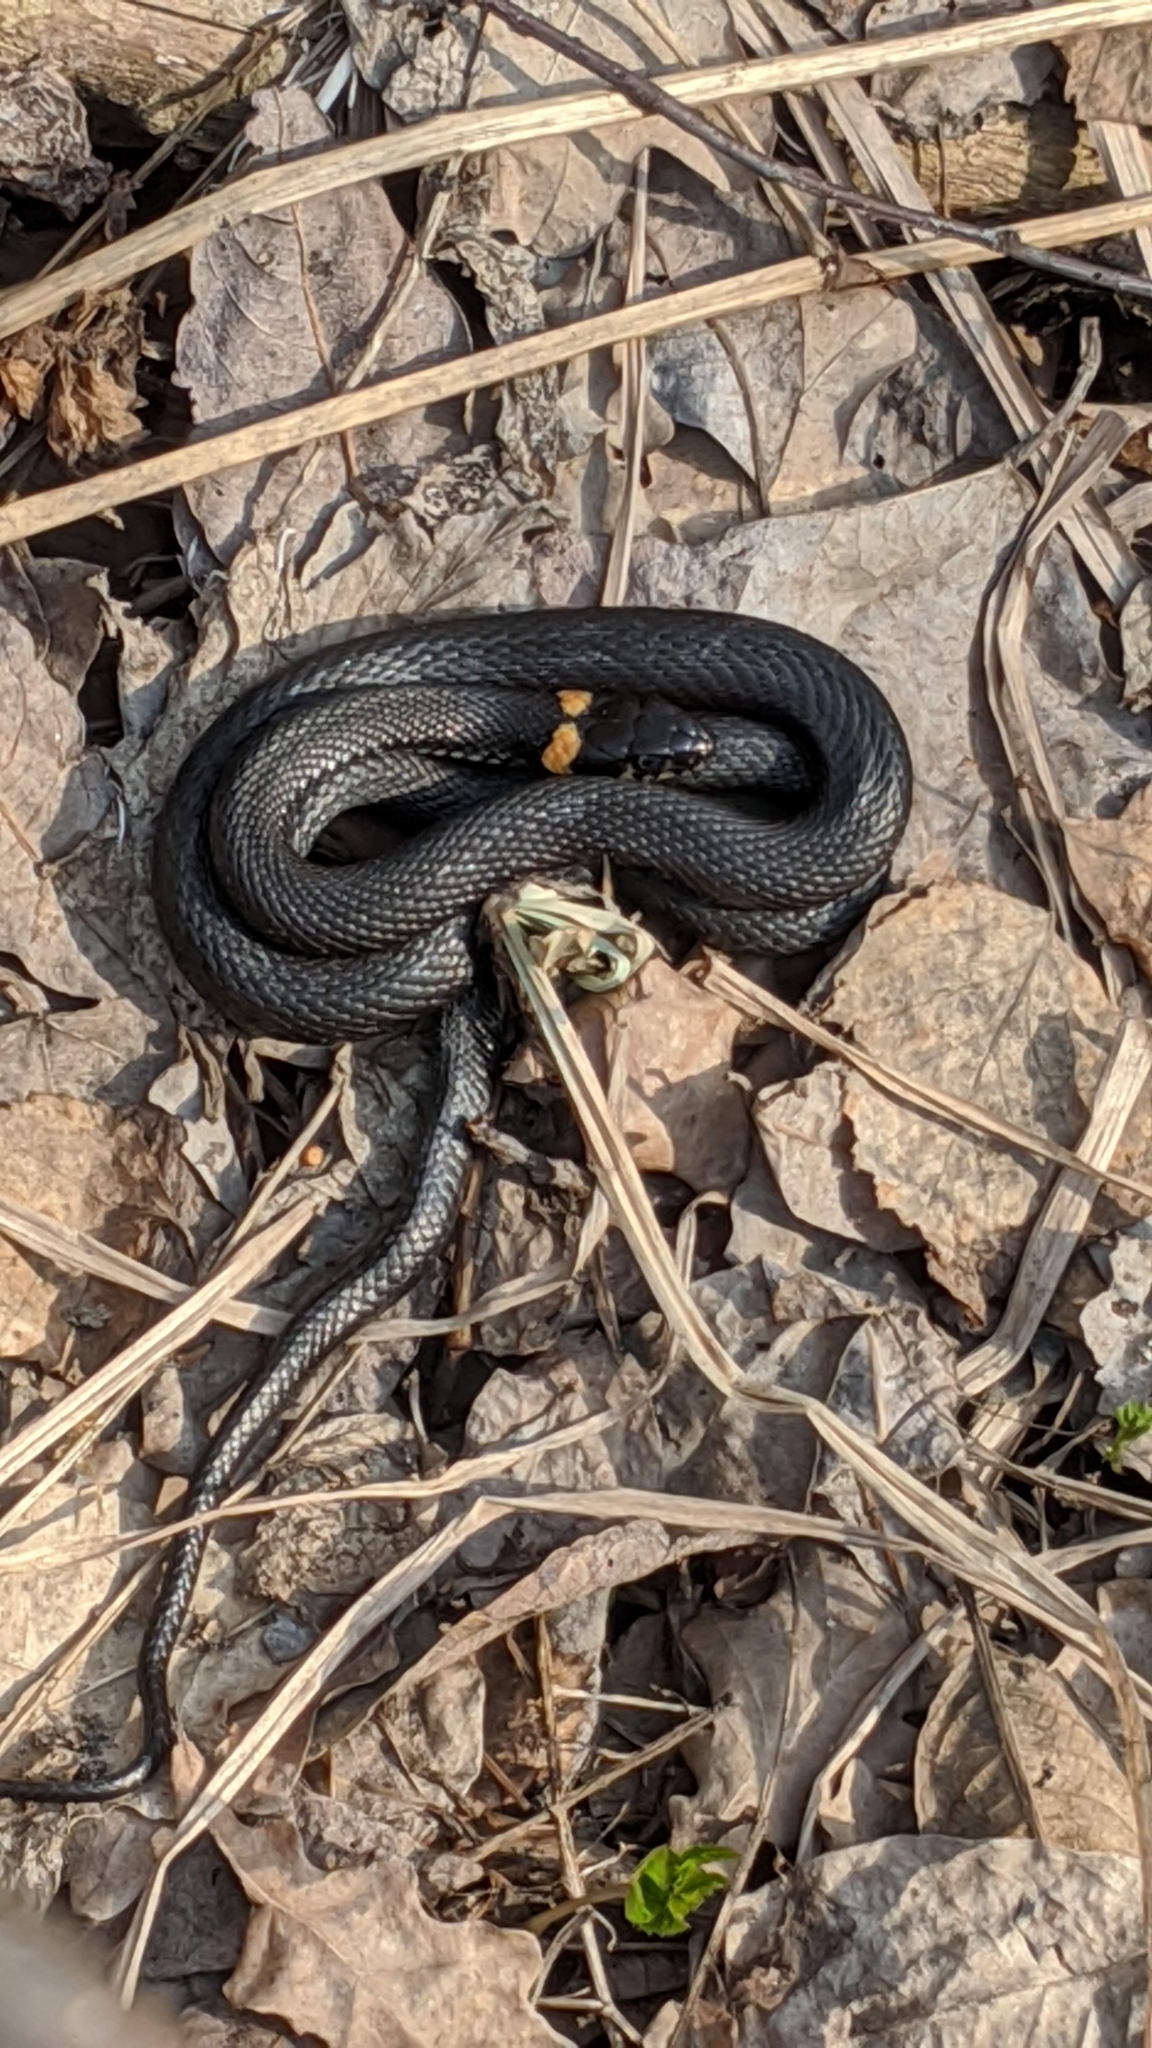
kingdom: Animalia
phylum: Chordata
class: Squamata
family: Colubridae
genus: Natrix
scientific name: Natrix natrix
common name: Grass snake
